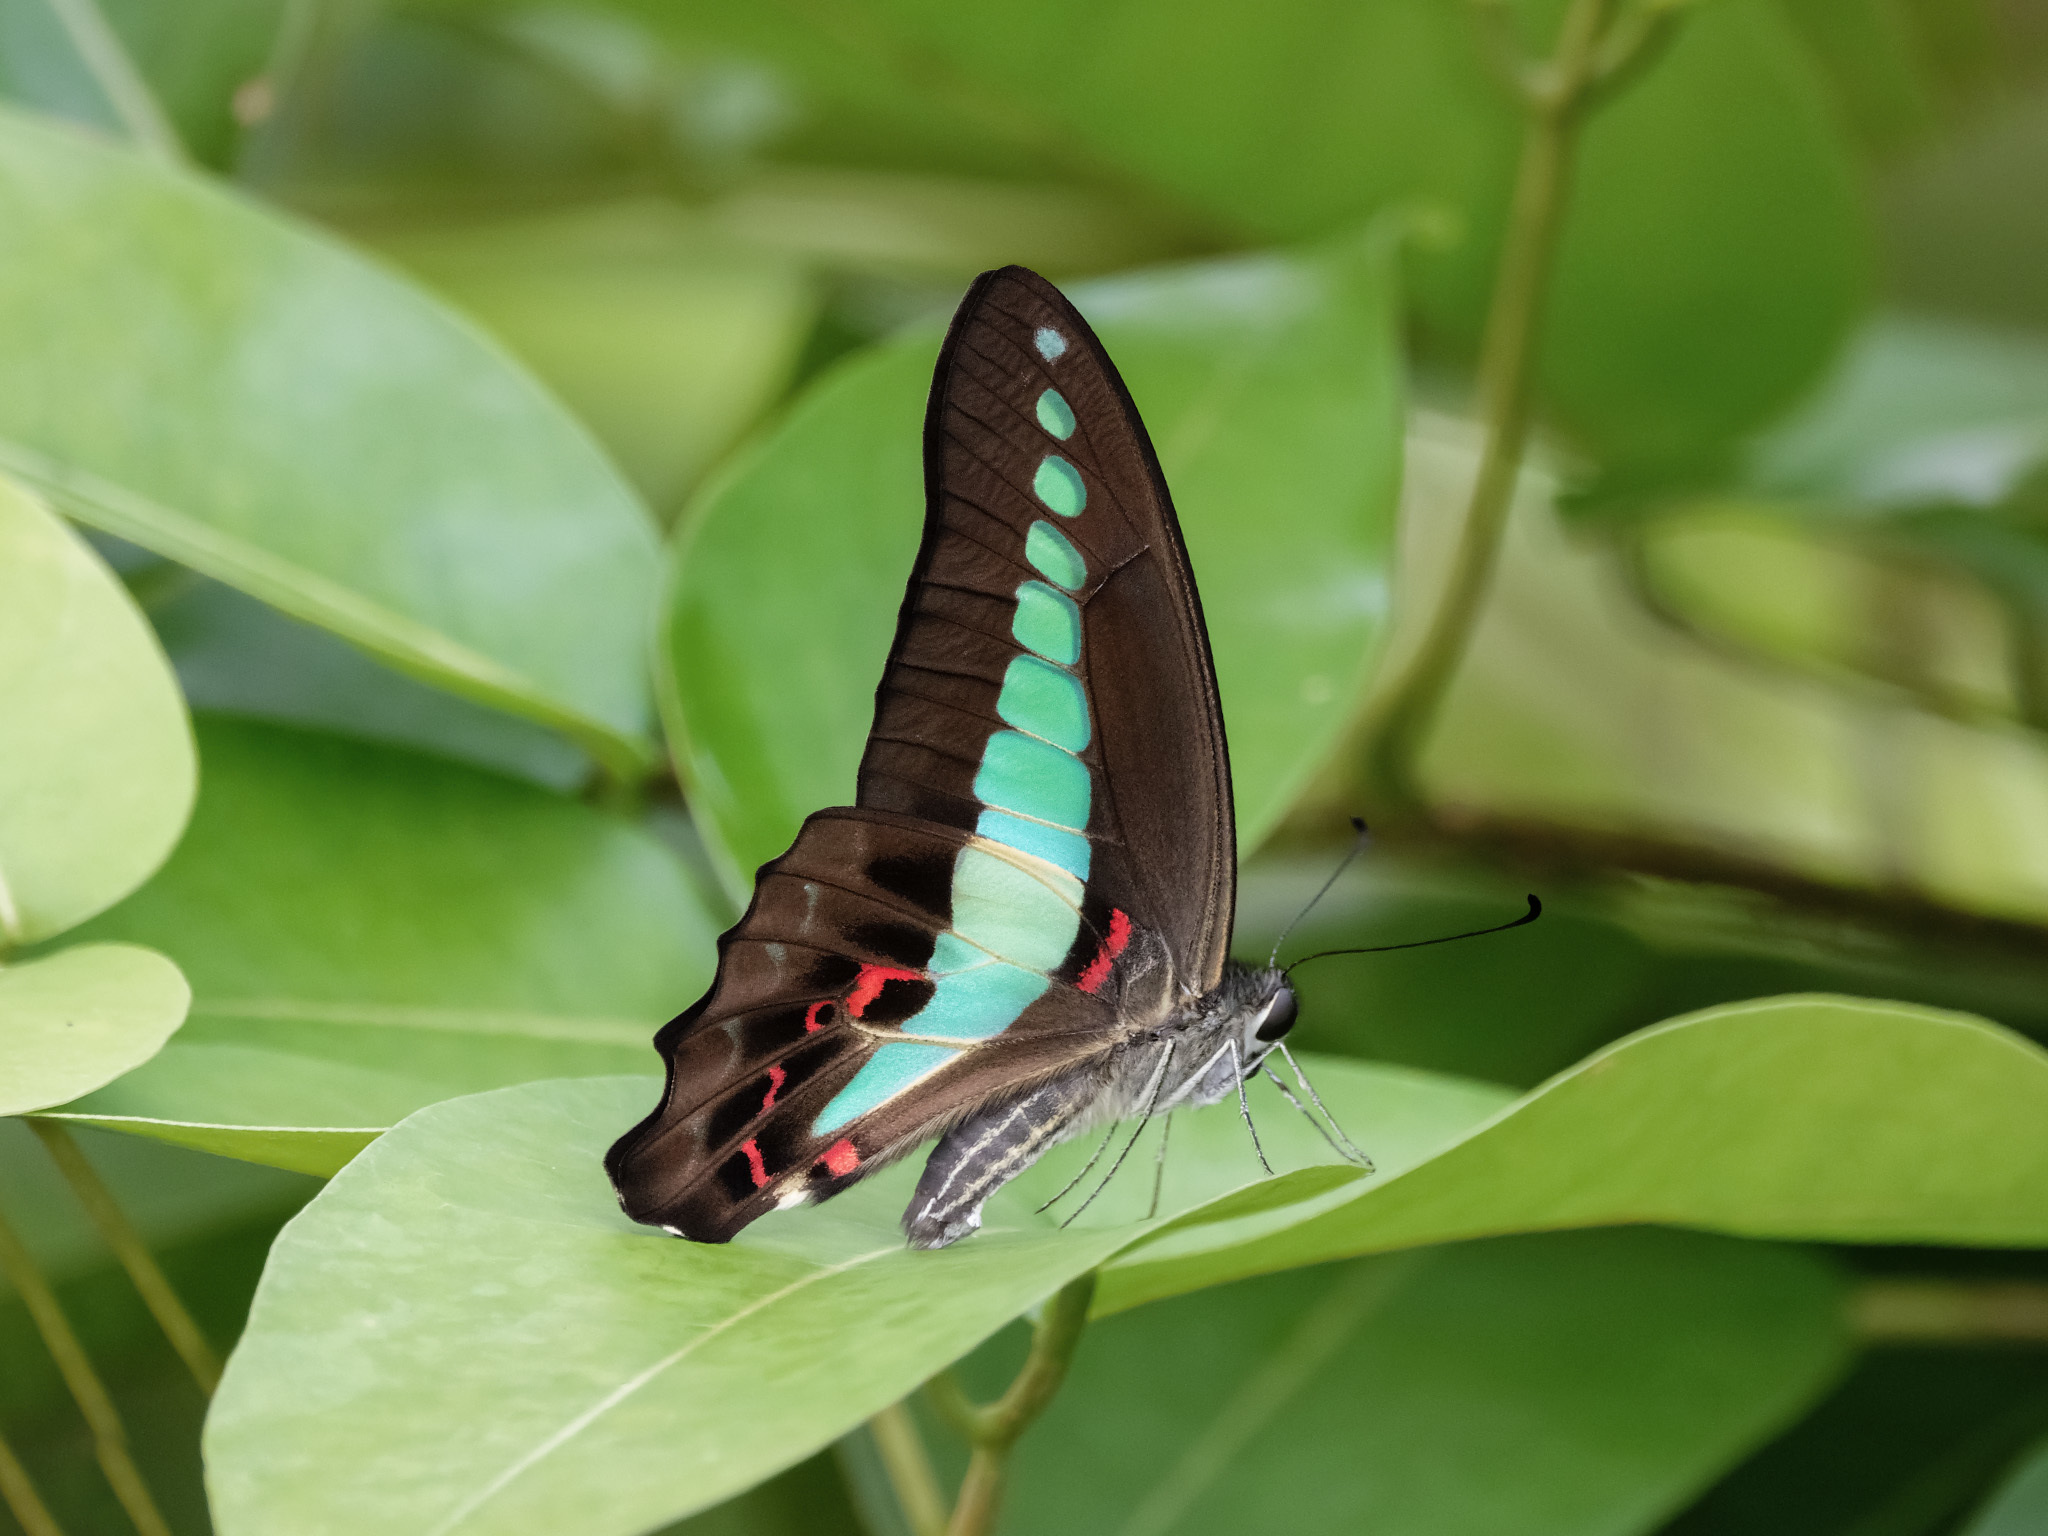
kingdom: Fungi
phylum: Ascomycota
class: Sordariomycetes
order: Microascales
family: Microascaceae
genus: Graphium
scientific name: Graphium sarpedon
